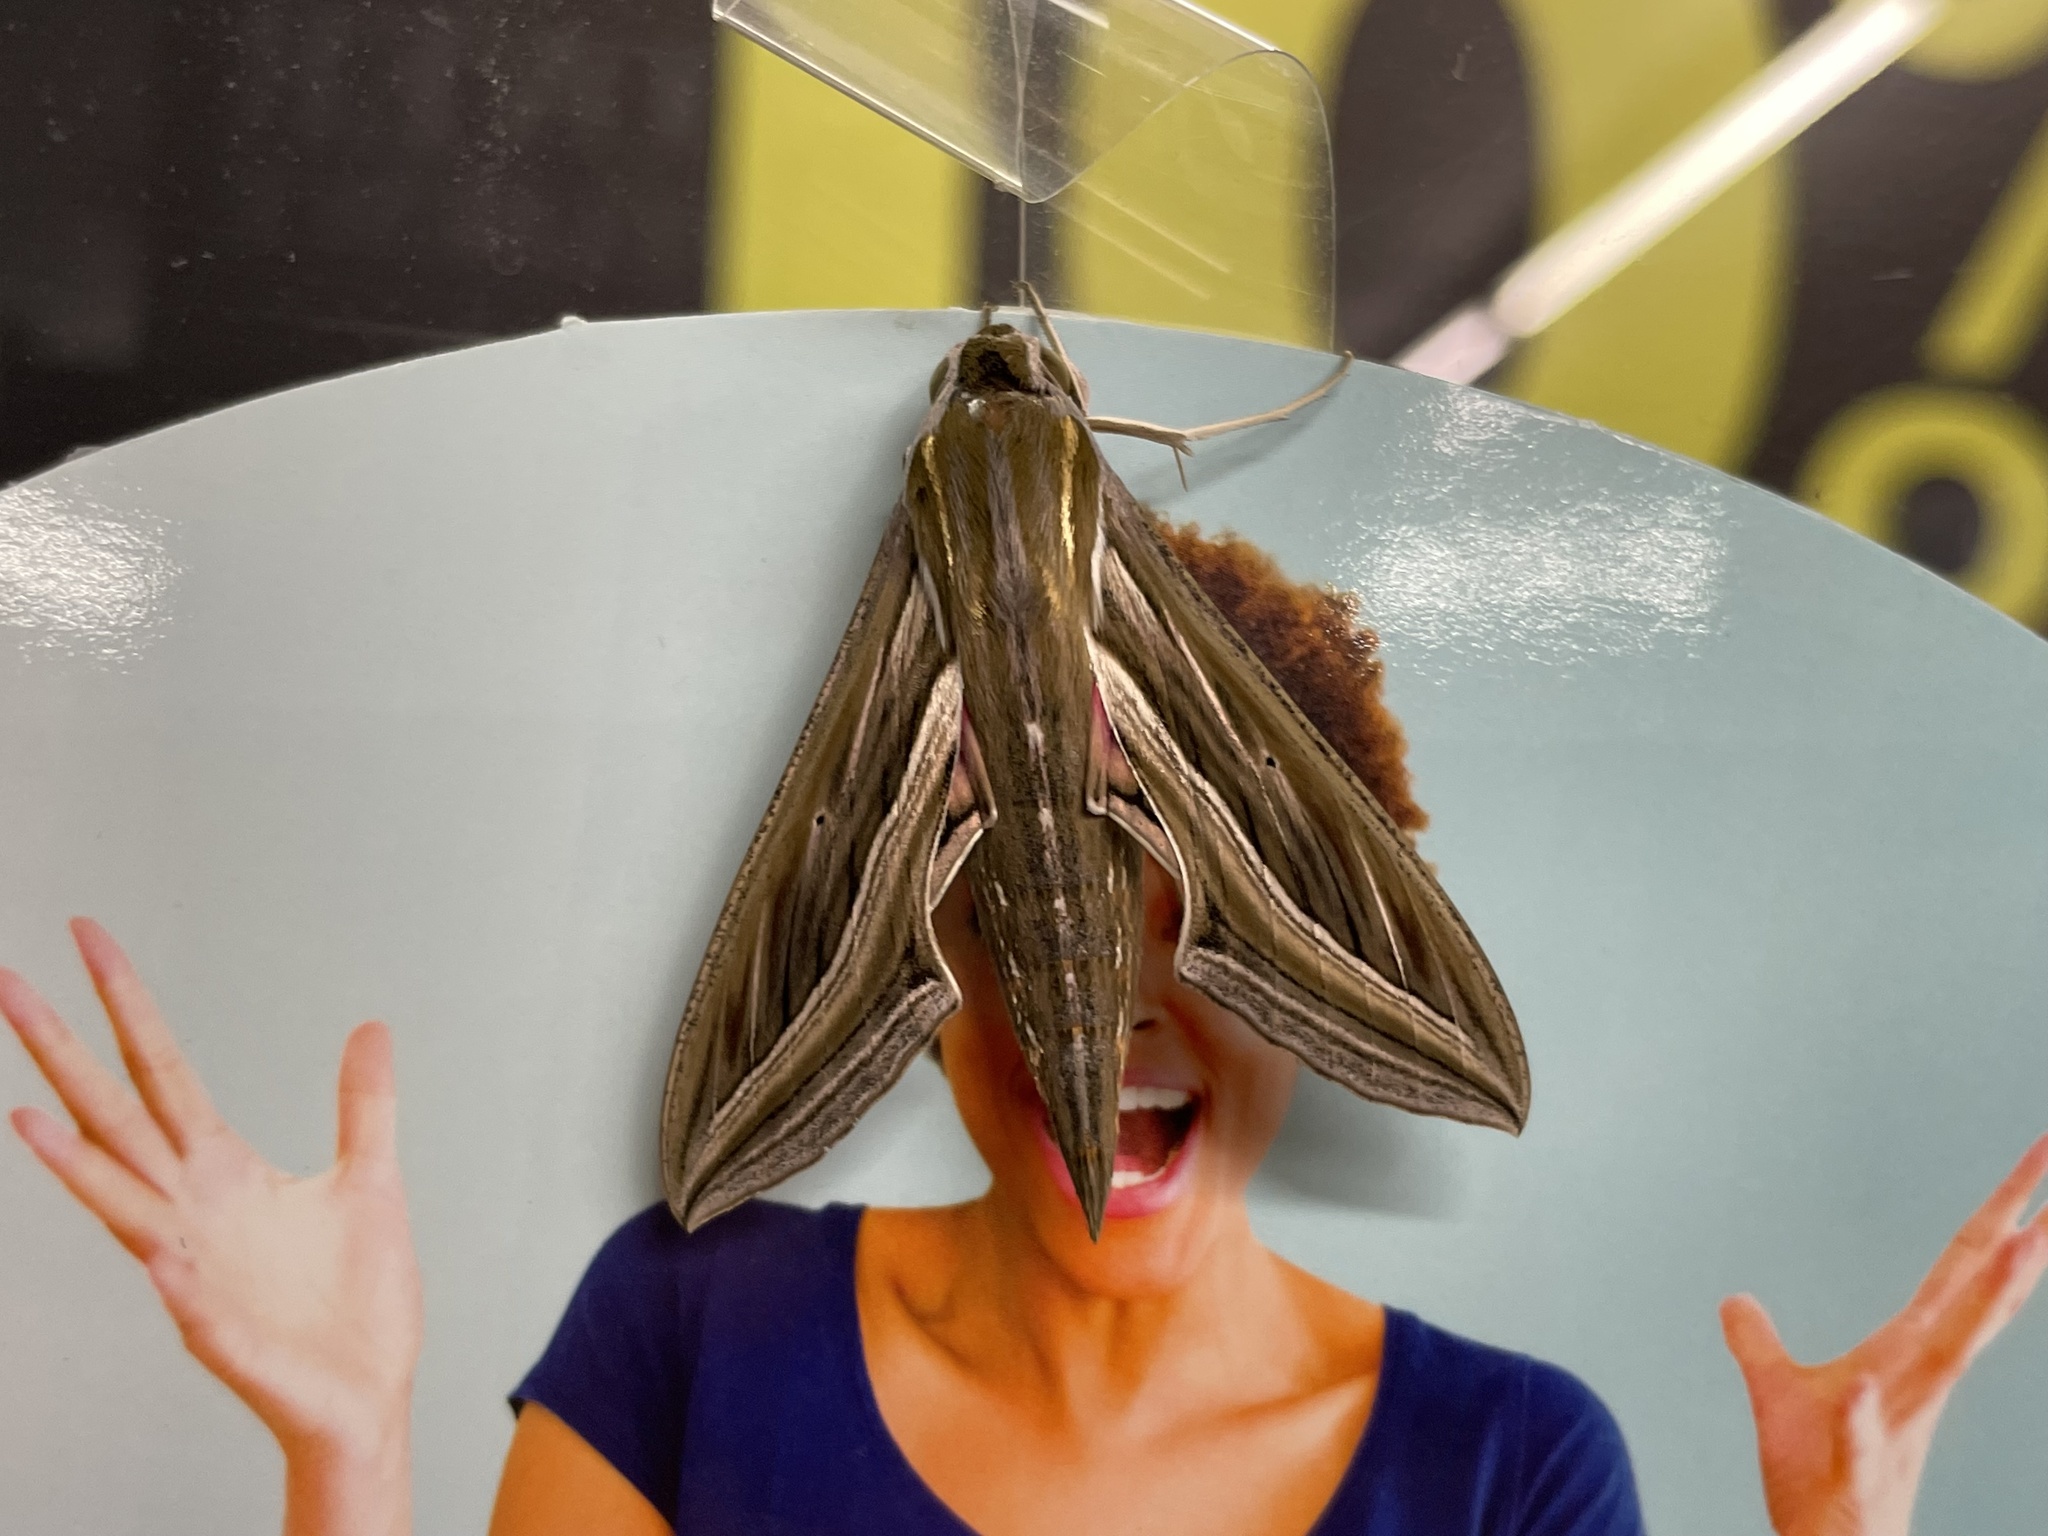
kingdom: Animalia
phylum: Arthropoda
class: Insecta
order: Lepidoptera
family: Sphingidae
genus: Hippotion
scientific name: Hippotion celerio
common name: Silver-striped hawk-moth
